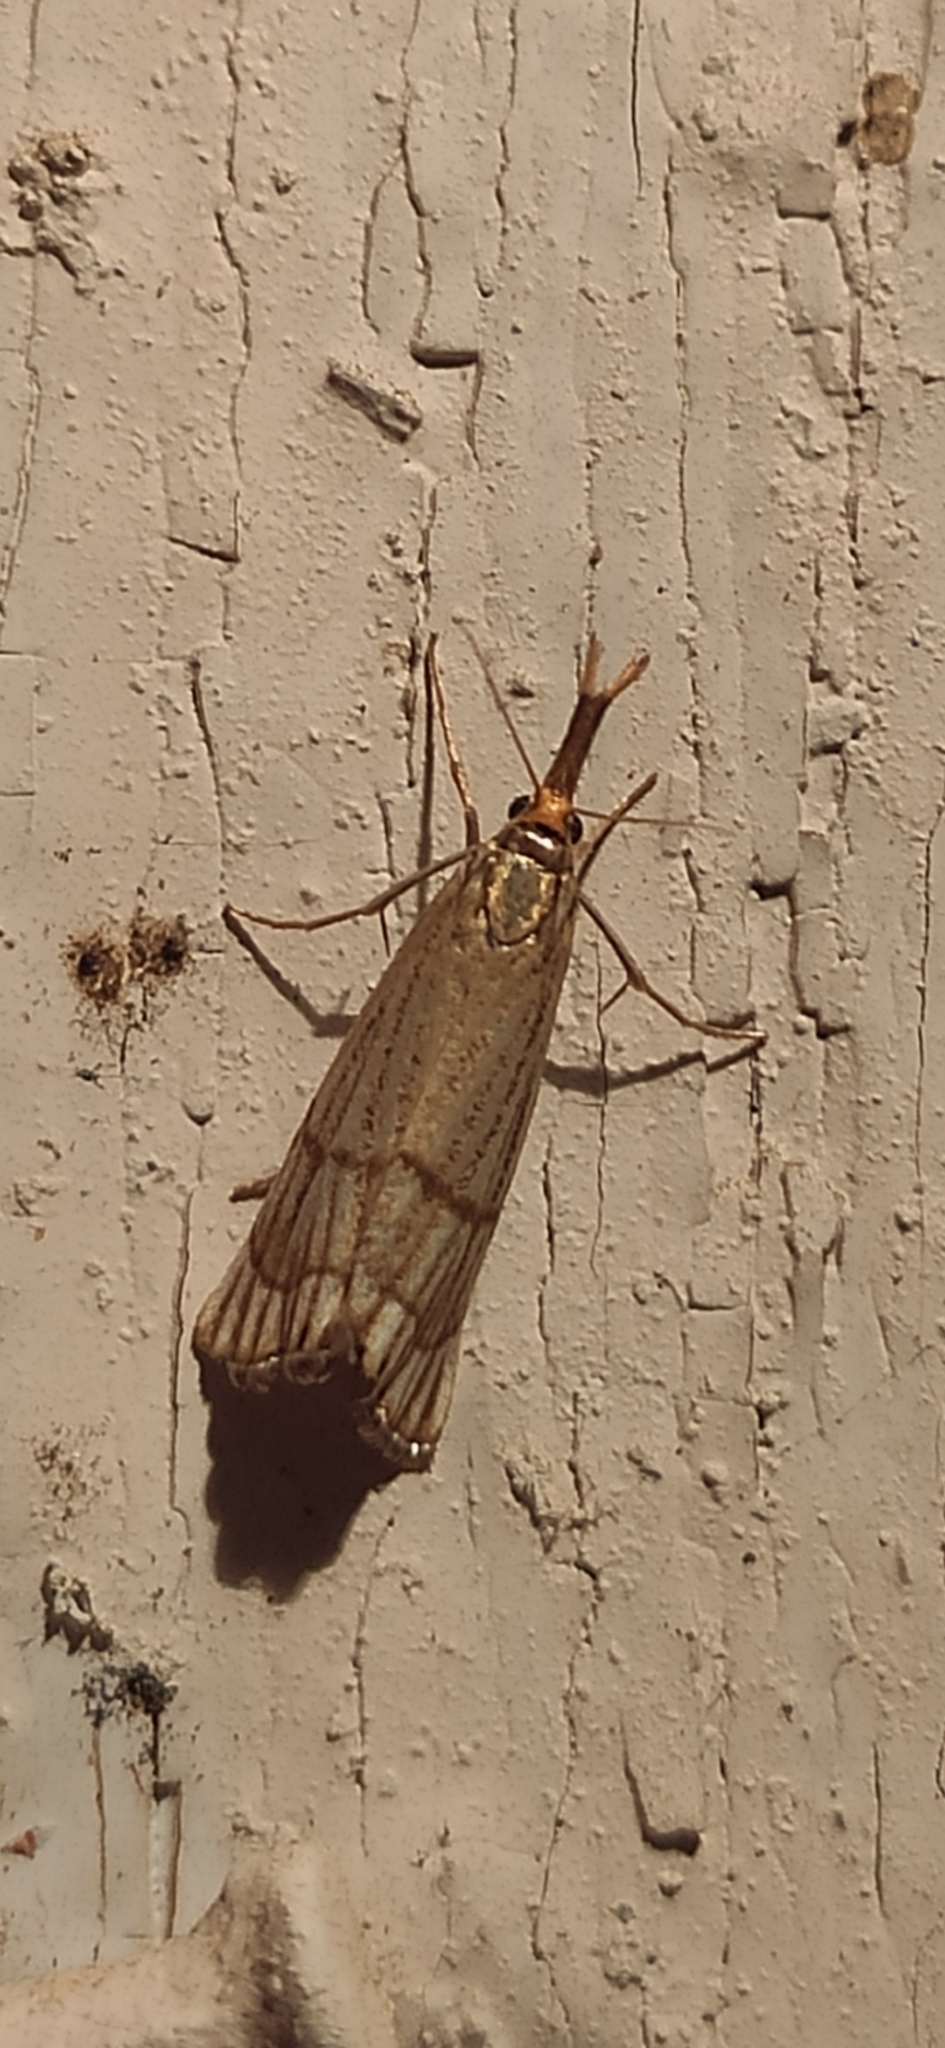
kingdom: Animalia
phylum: Arthropoda
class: Insecta
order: Lepidoptera
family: Crambidae
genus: Chrysocrambus
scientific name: Chrysocrambus linetella
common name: Orange-bar grass-veneer
